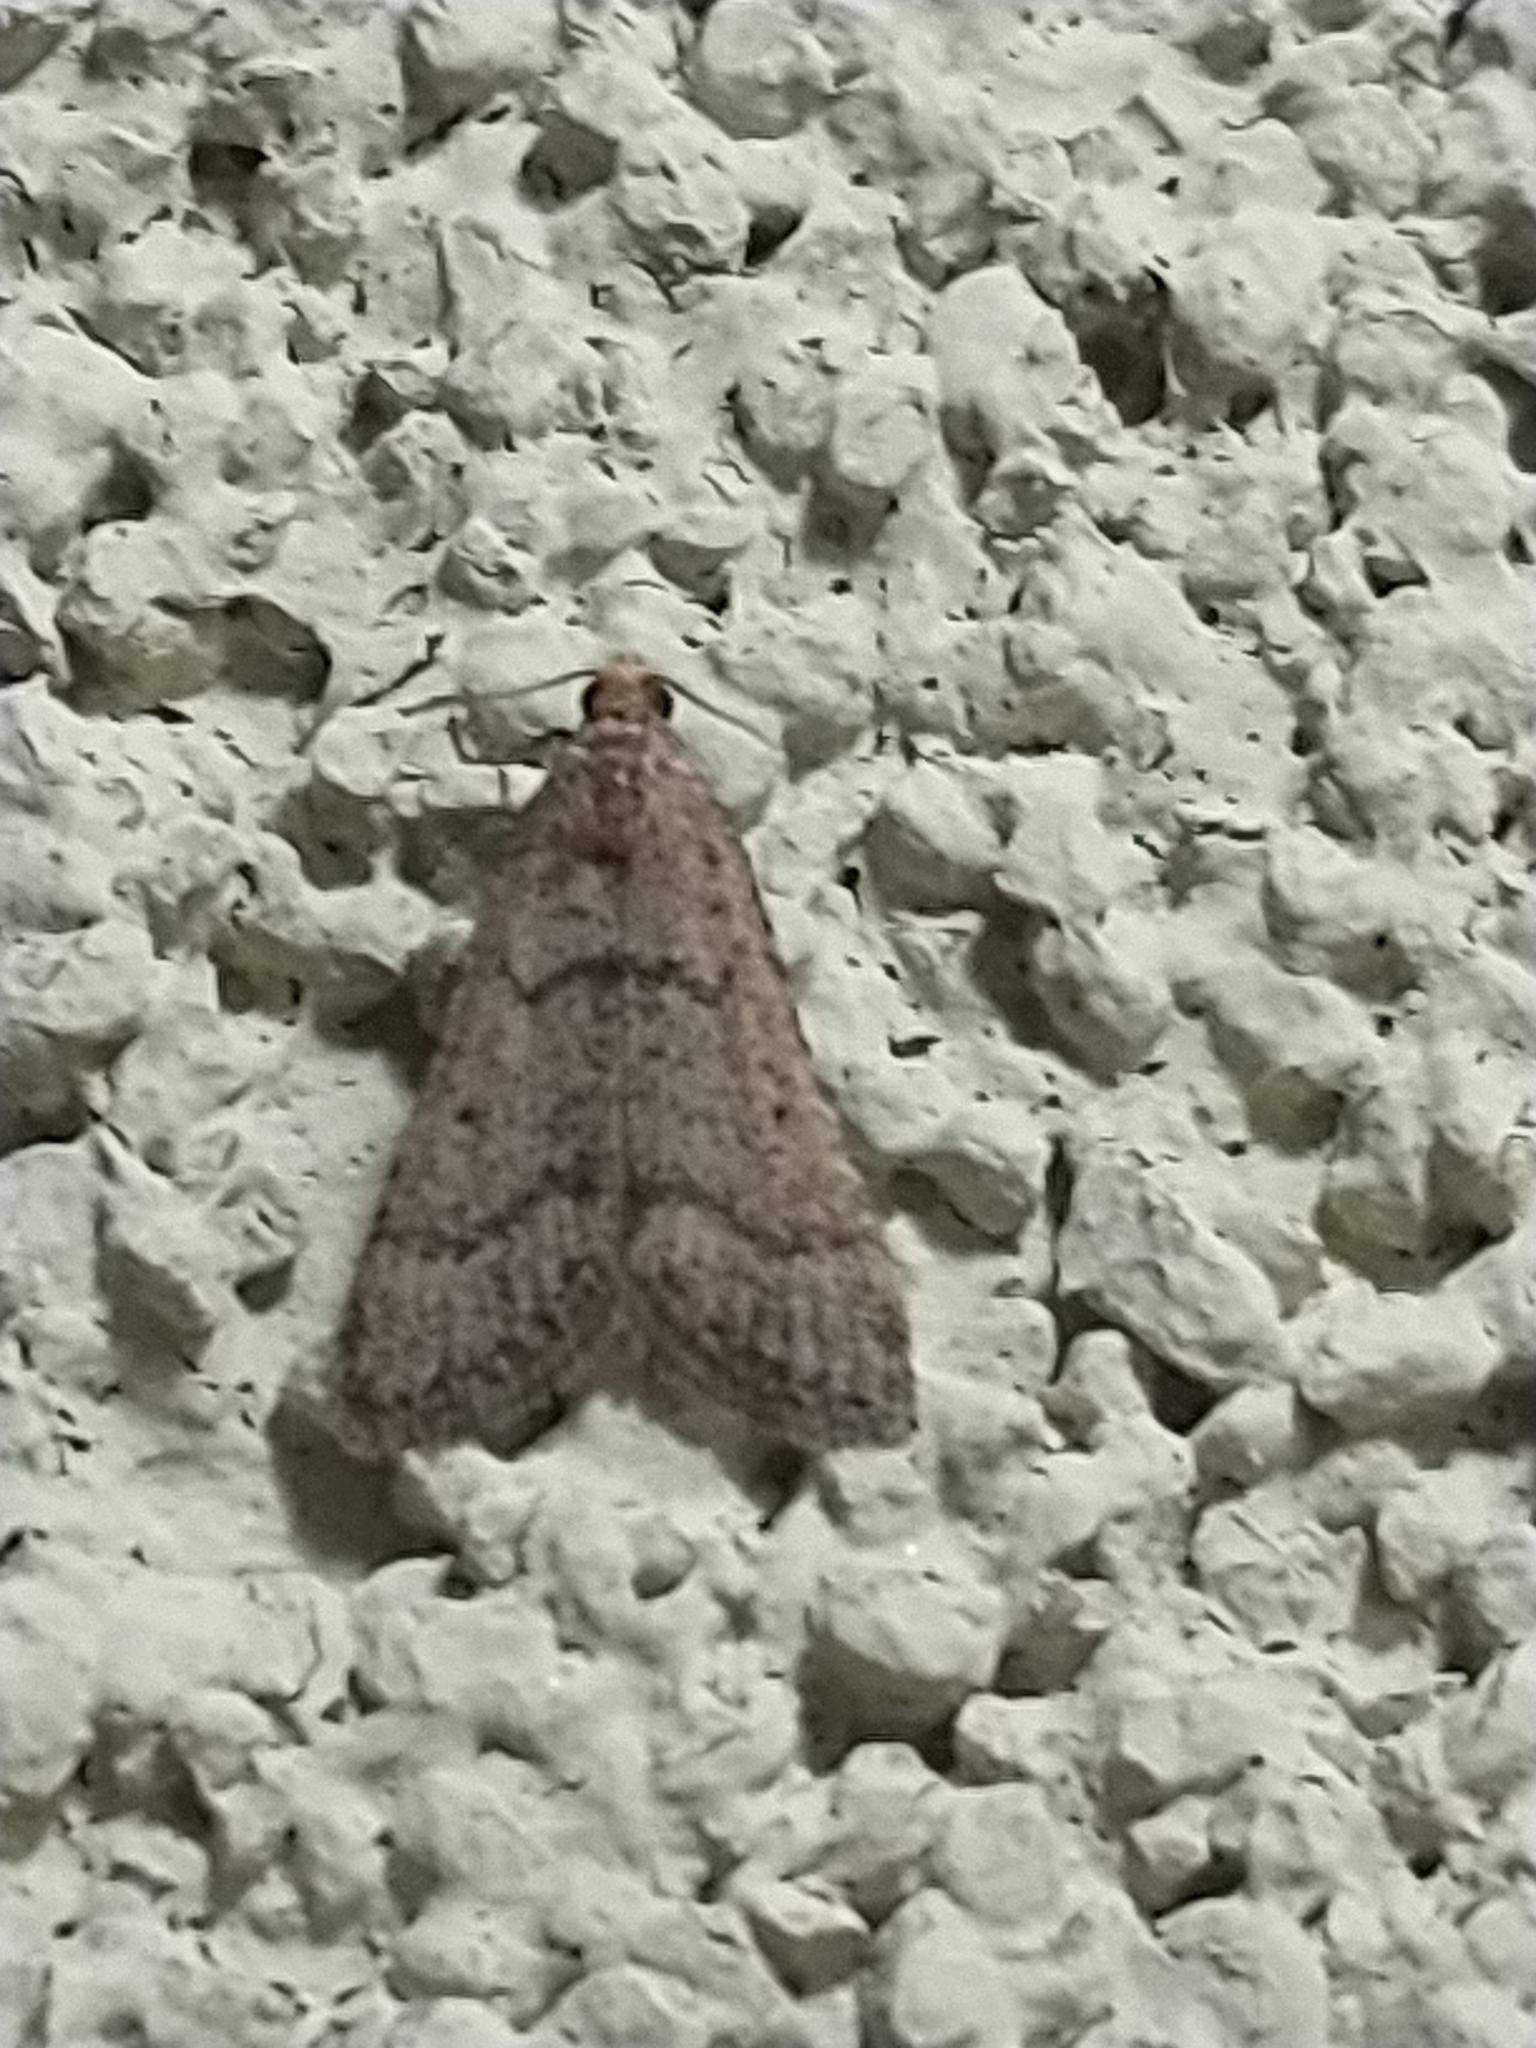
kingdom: Animalia
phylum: Arthropoda
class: Insecta
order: Lepidoptera
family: Pyralidae
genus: Bostra
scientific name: Bostra obsoletalis
